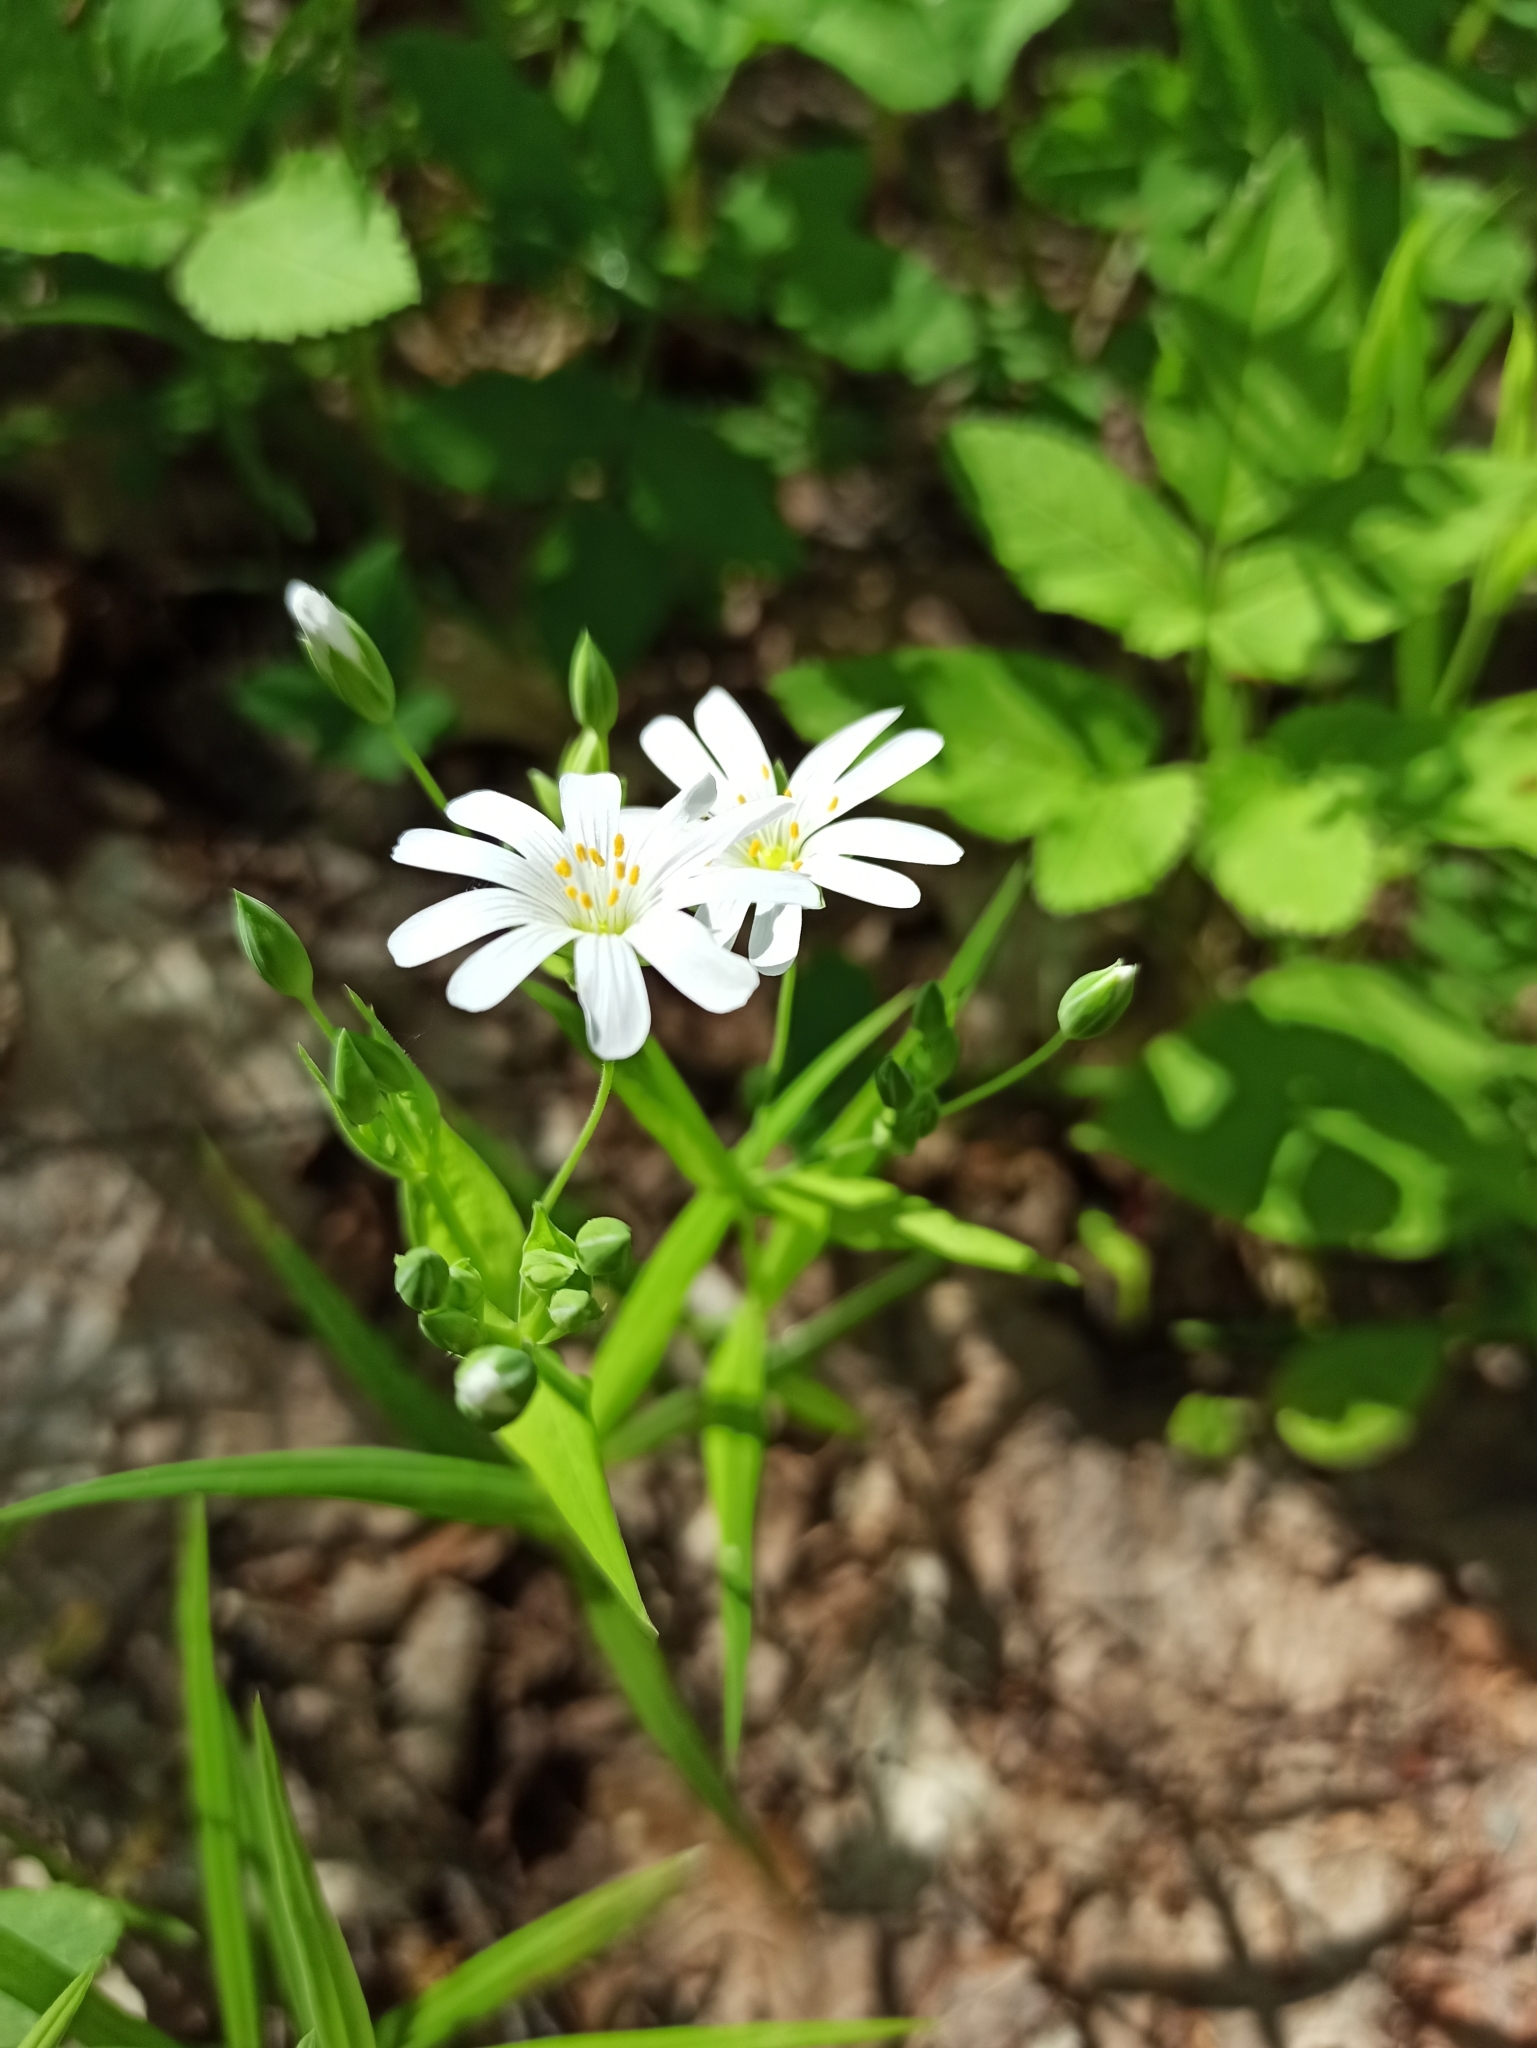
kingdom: Plantae
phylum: Tracheophyta
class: Magnoliopsida
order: Caryophyllales
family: Caryophyllaceae
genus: Rabelera
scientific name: Rabelera holostea
